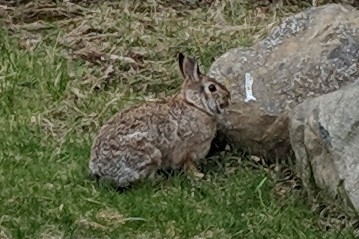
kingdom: Animalia
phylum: Chordata
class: Mammalia
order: Lagomorpha
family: Leporidae
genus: Sylvilagus
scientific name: Sylvilagus floridanus
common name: Eastern cottontail
